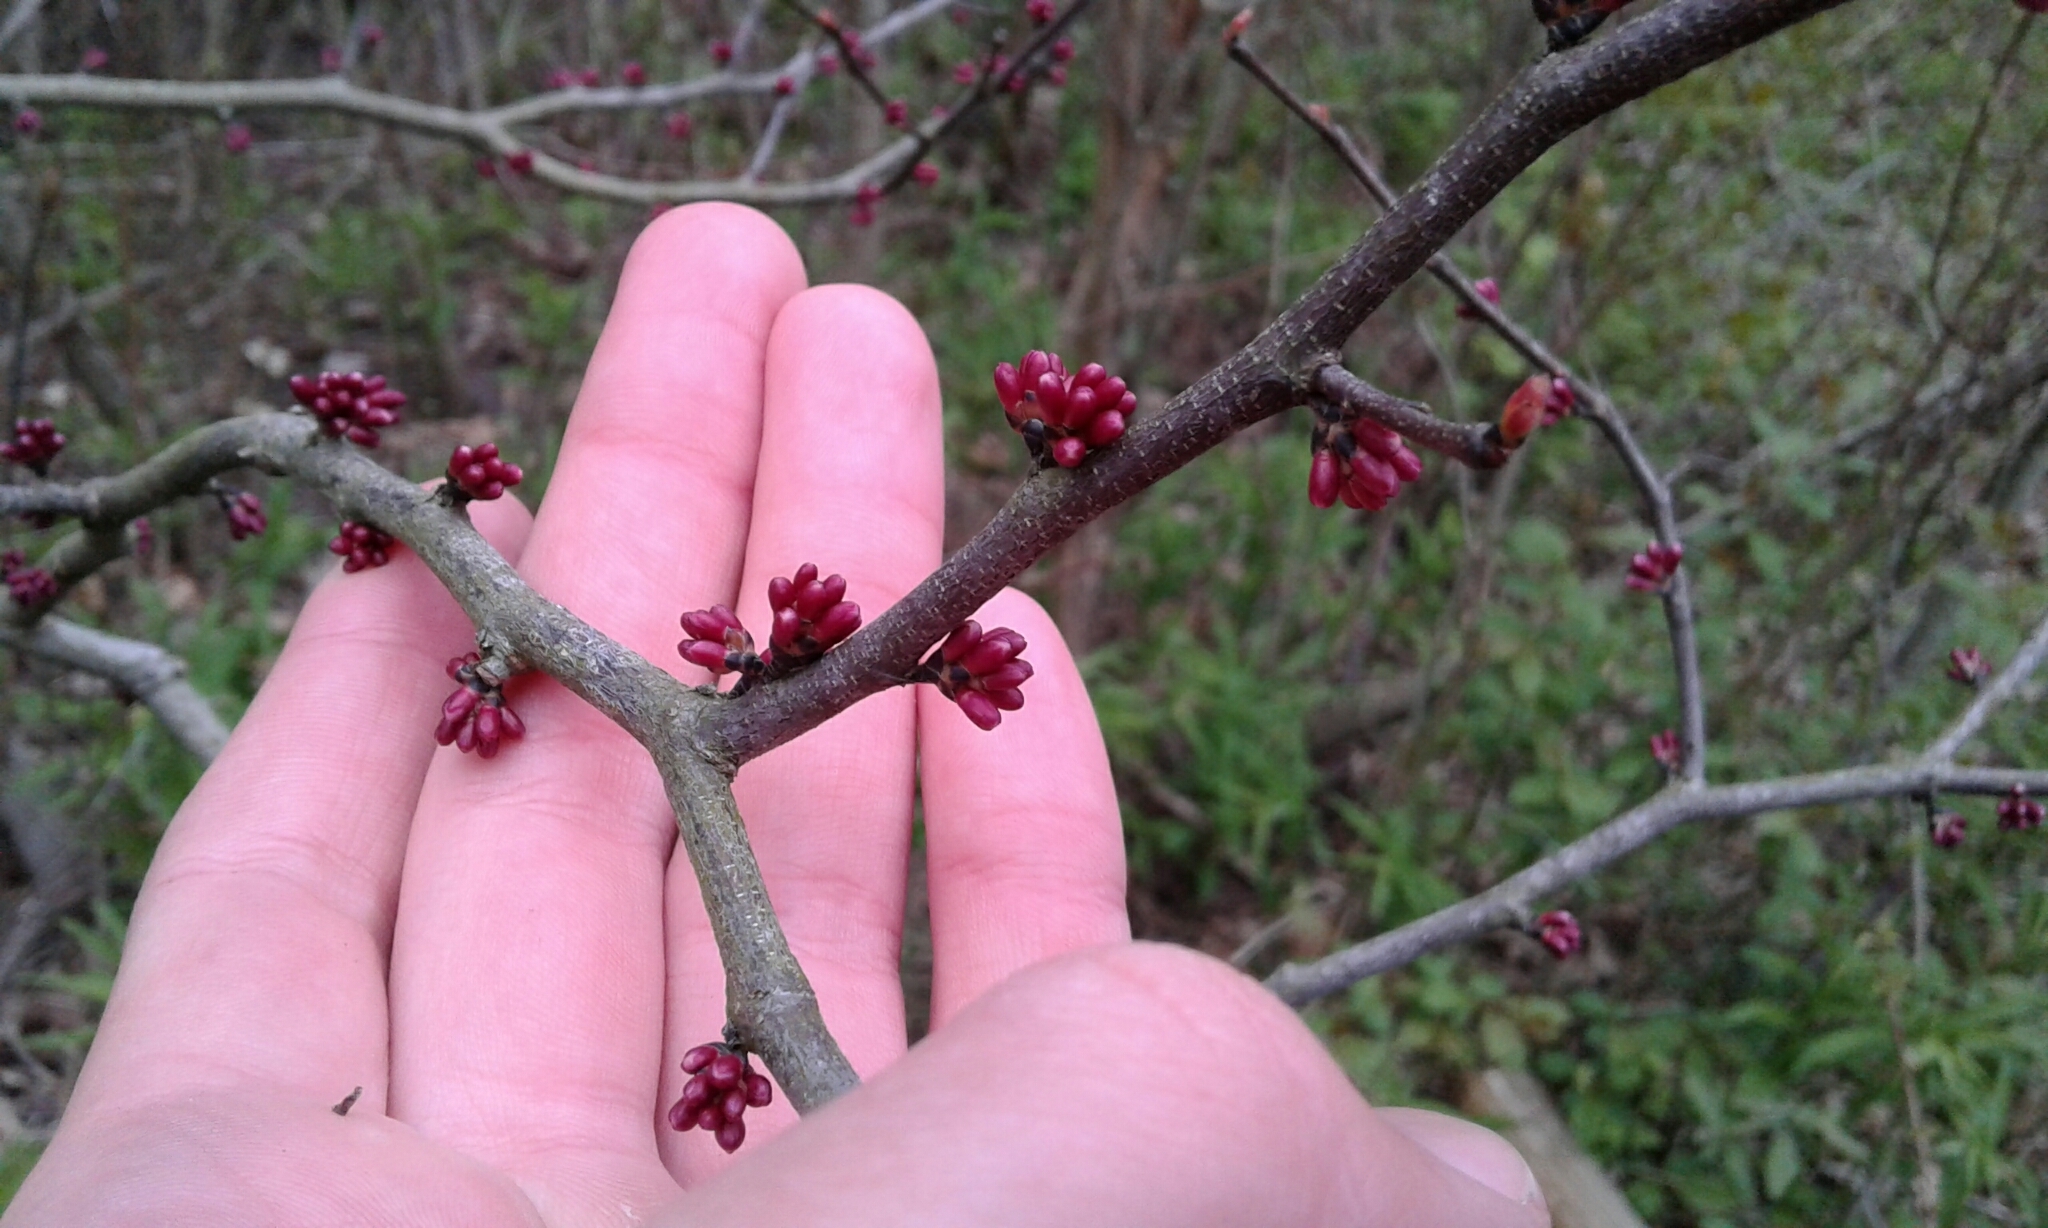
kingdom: Plantae
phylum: Tracheophyta
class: Magnoliopsida
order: Fabales
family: Fabaceae
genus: Cercis
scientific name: Cercis canadensis
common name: Eastern redbud
